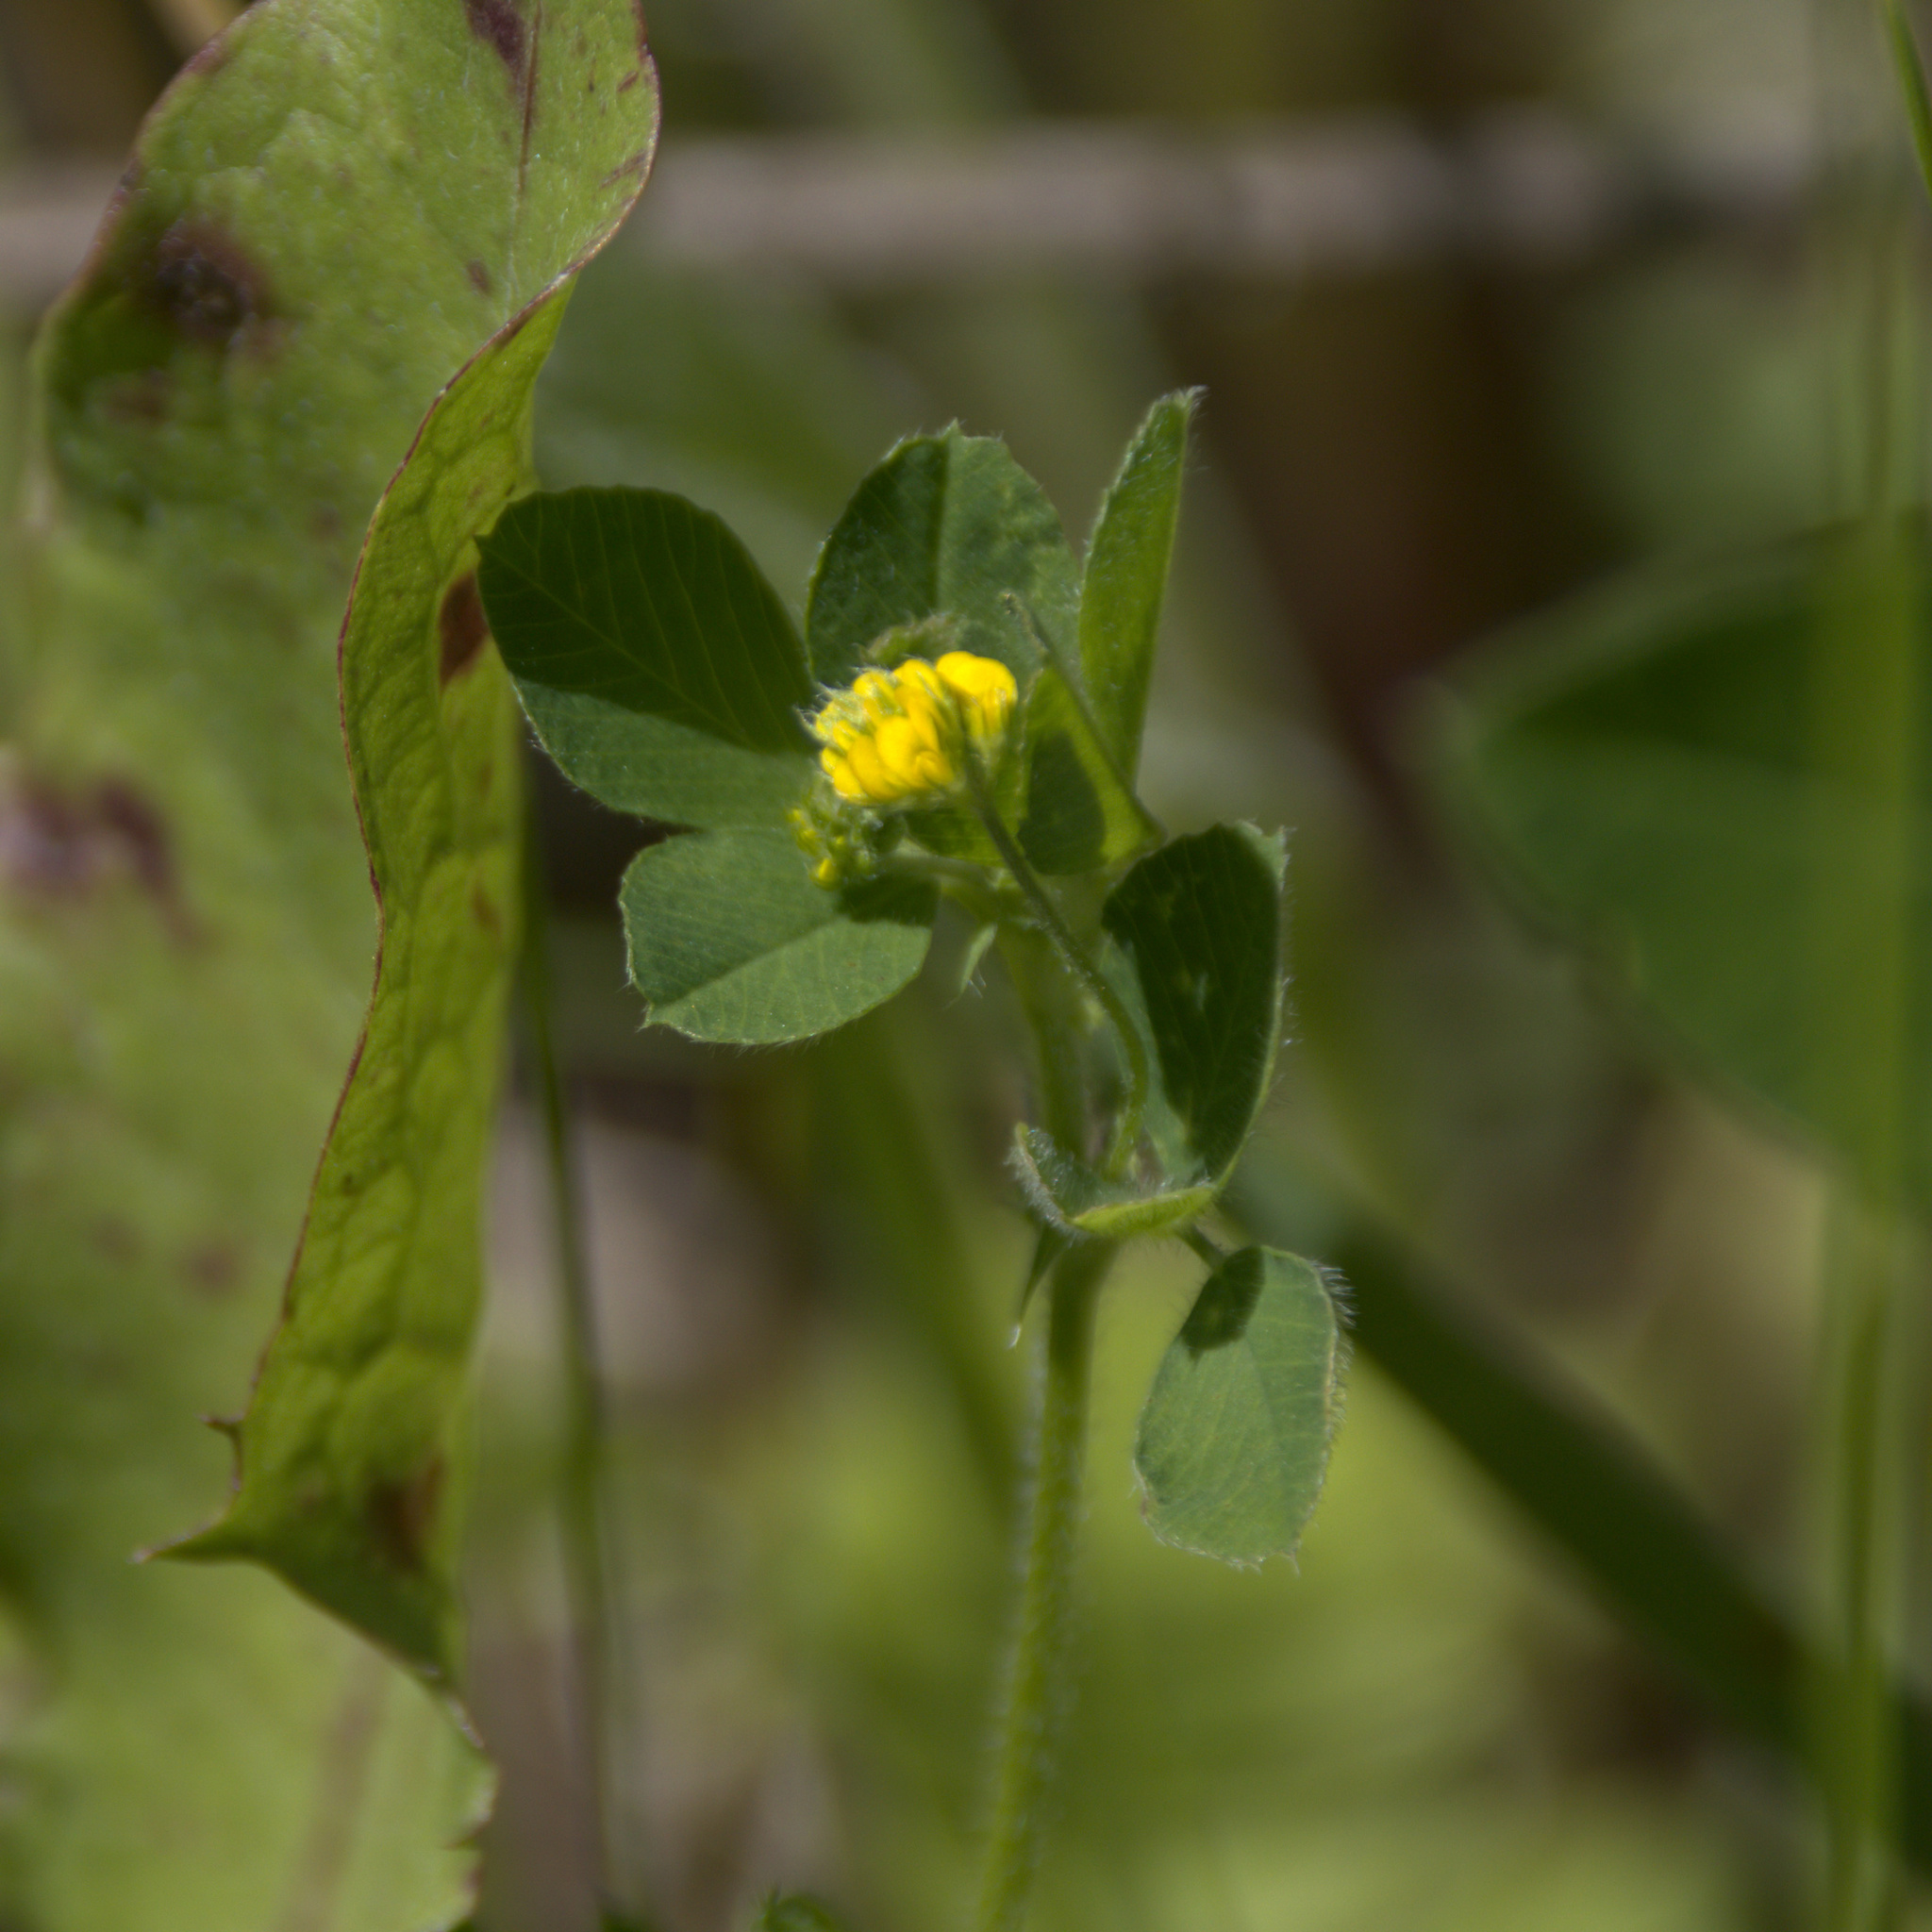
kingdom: Plantae
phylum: Tracheophyta
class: Magnoliopsida
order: Fabales
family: Fabaceae
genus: Medicago
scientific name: Medicago lupulina
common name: Black medick
